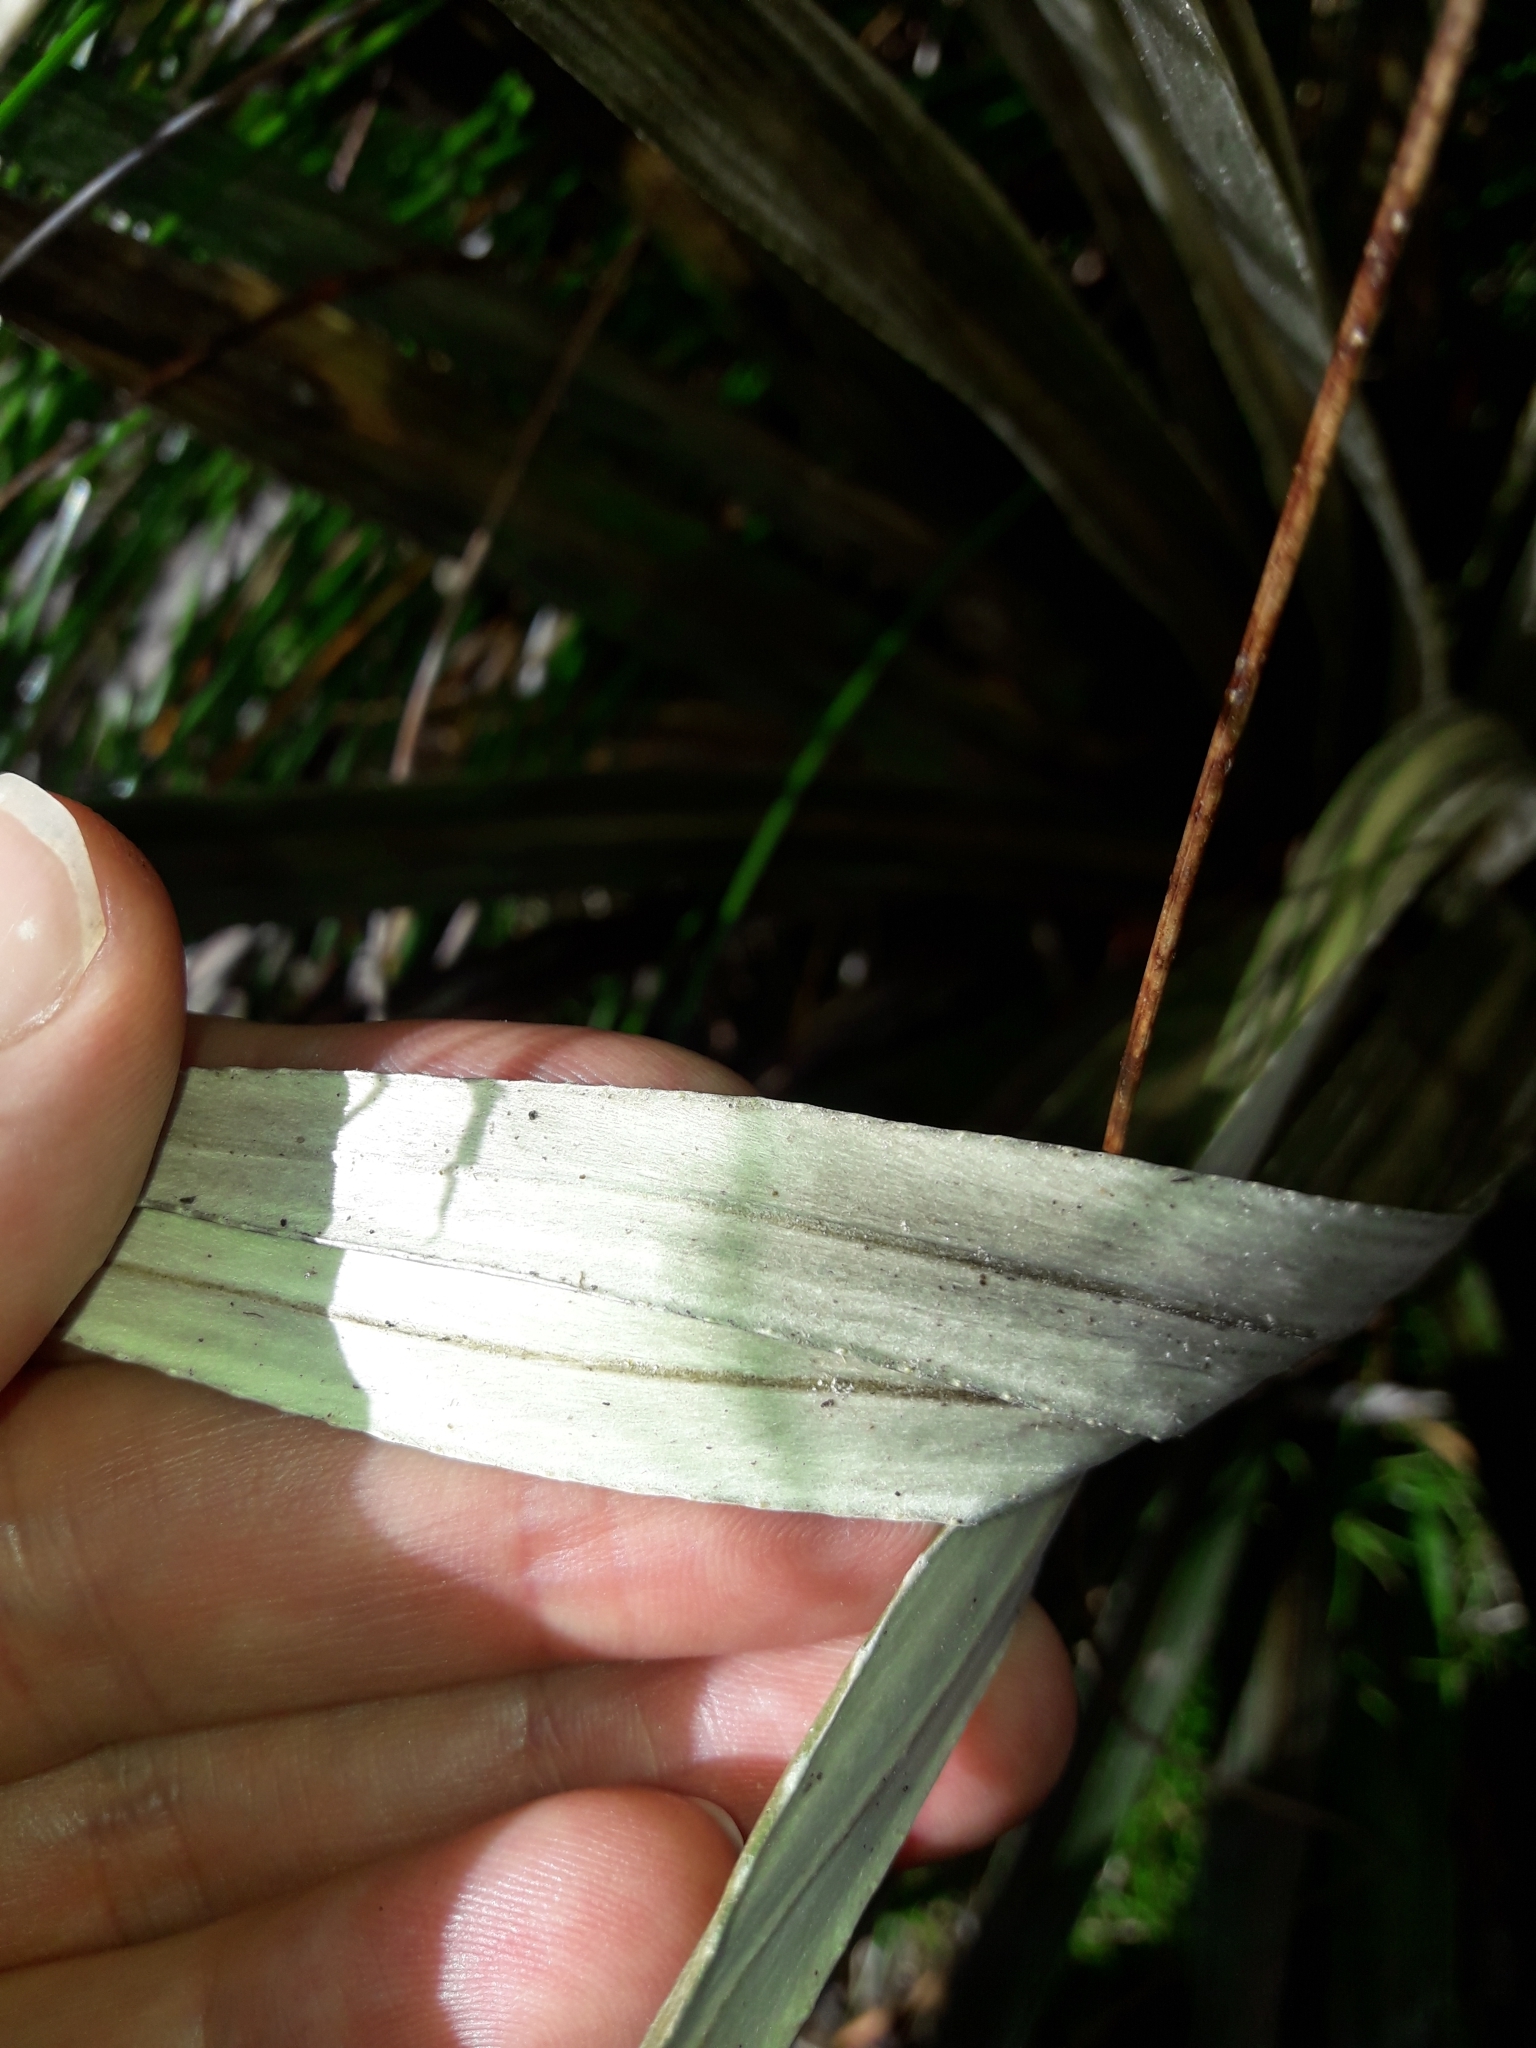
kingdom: Plantae
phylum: Tracheophyta
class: Magnoliopsida
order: Asterales
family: Asteraceae
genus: Celmisia
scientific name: Celmisia armstrongii
